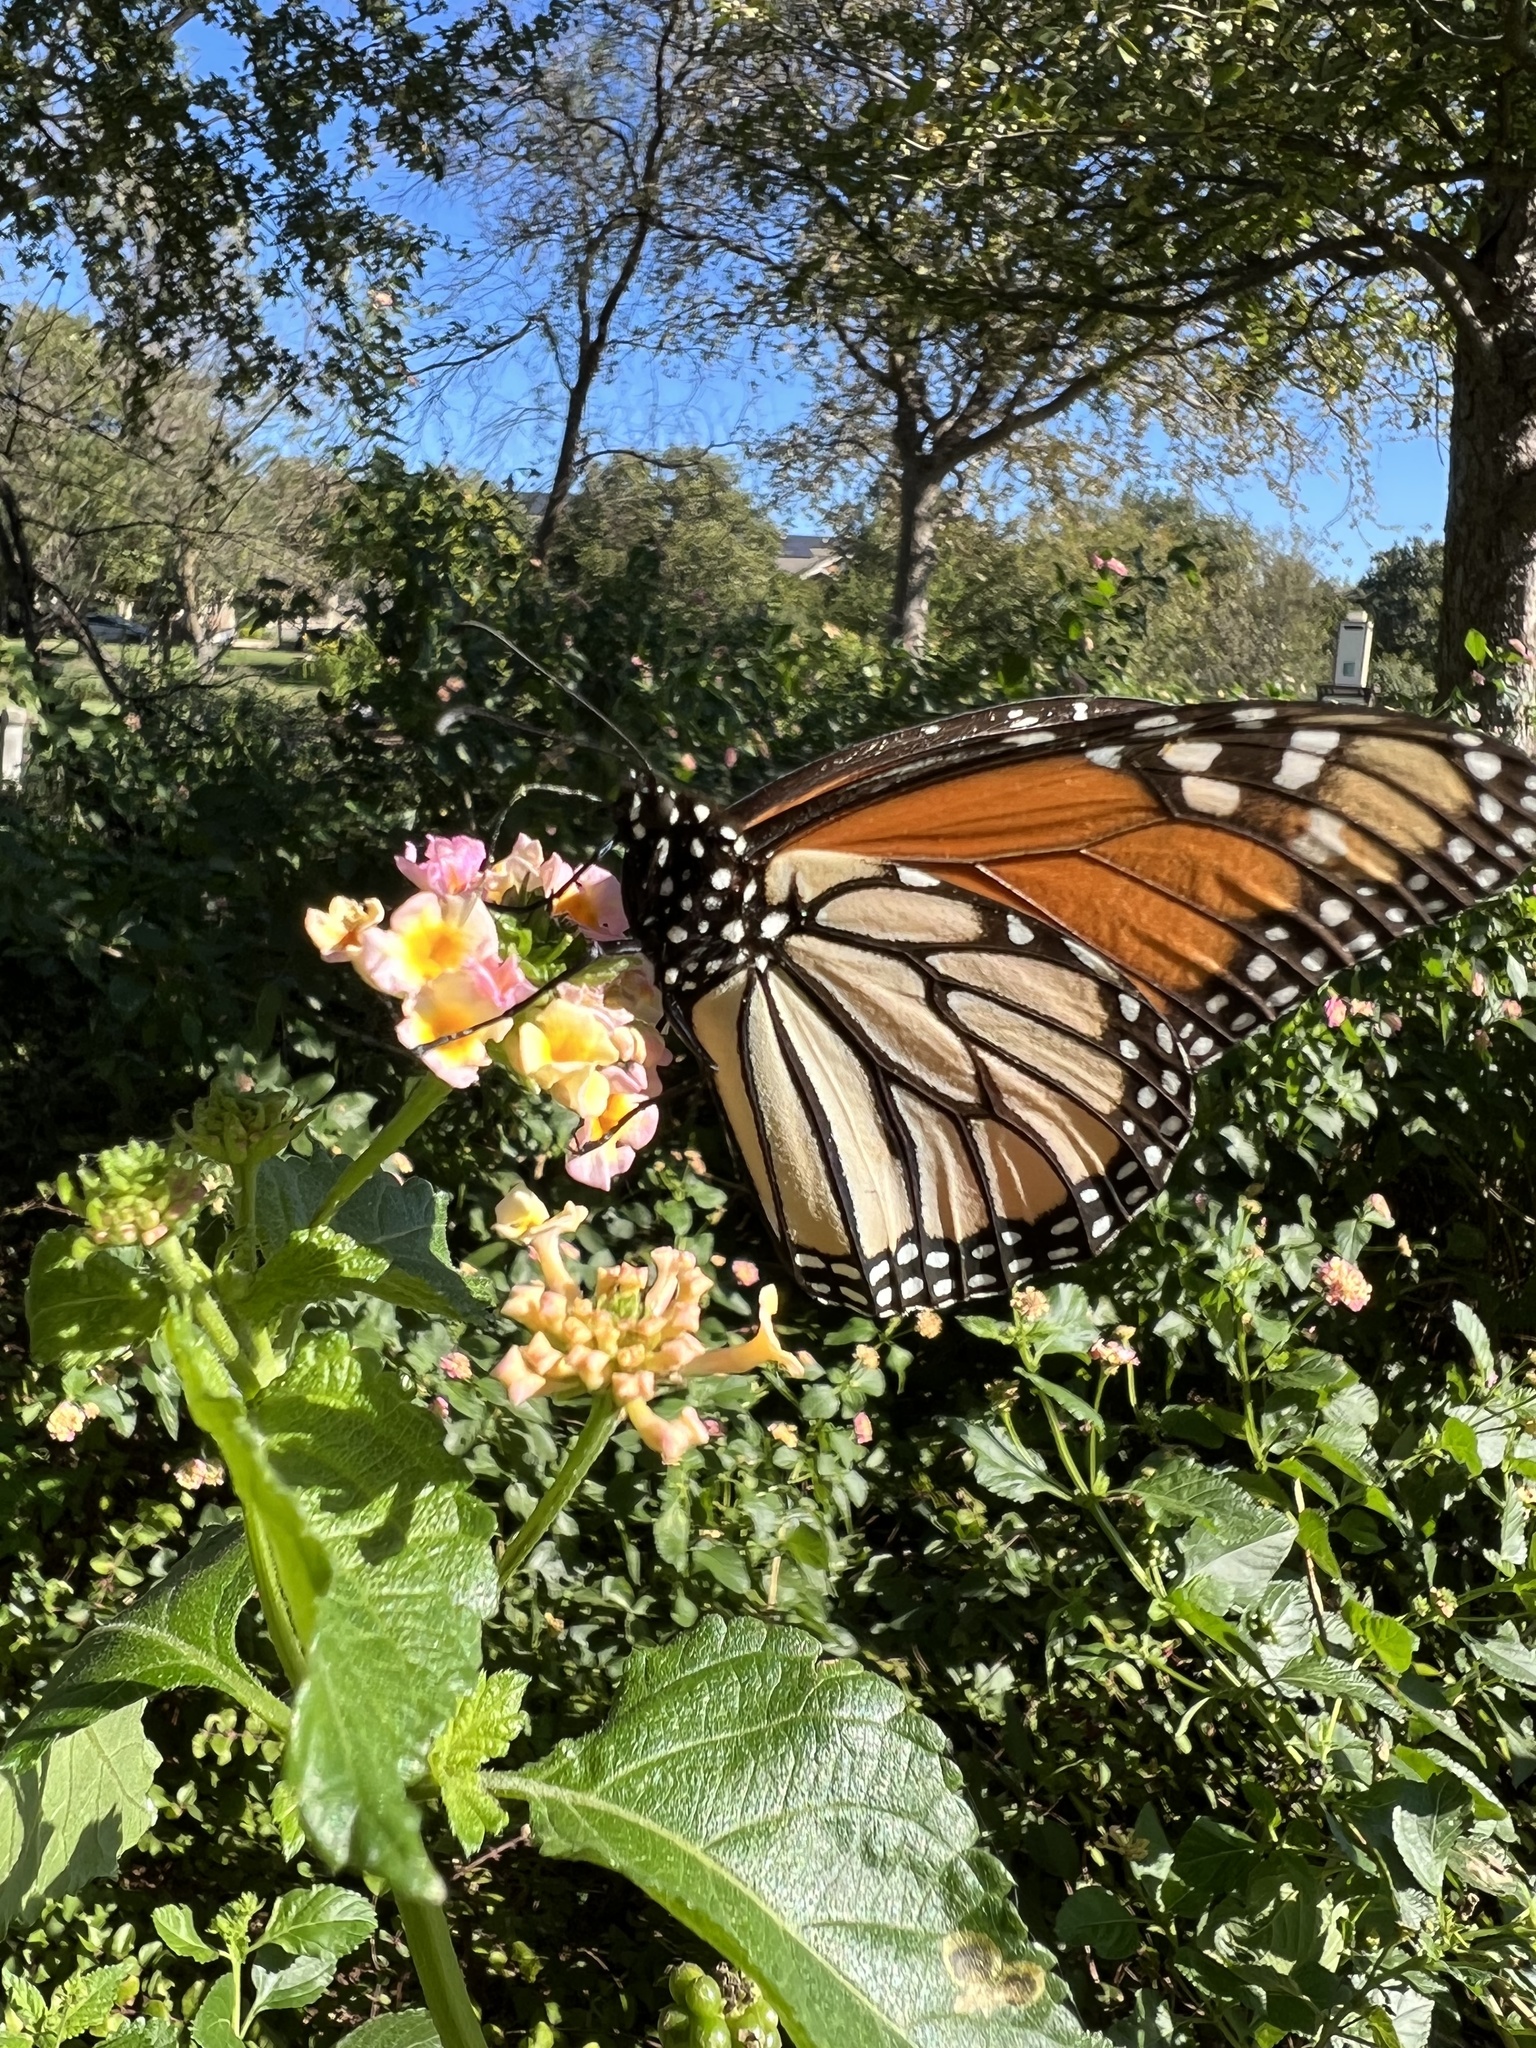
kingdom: Animalia
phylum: Arthropoda
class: Insecta
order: Lepidoptera
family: Nymphalidae
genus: Danaus
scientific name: Danaus plexippus
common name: Monarch
